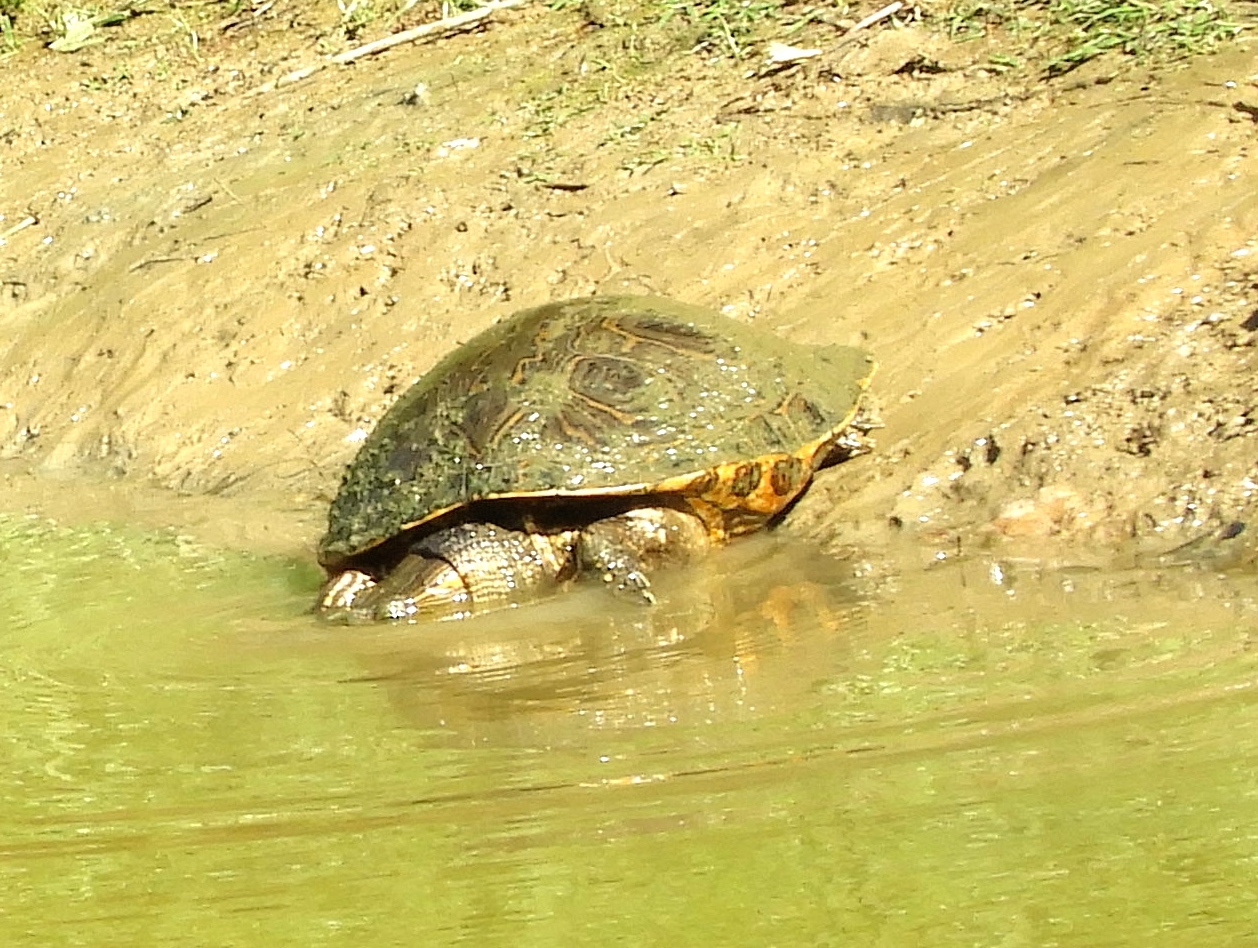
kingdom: Animalia
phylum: Chordata
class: Testudines
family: Emydidae
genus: Trachemys
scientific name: Trachemys ornata
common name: Ornate slider
